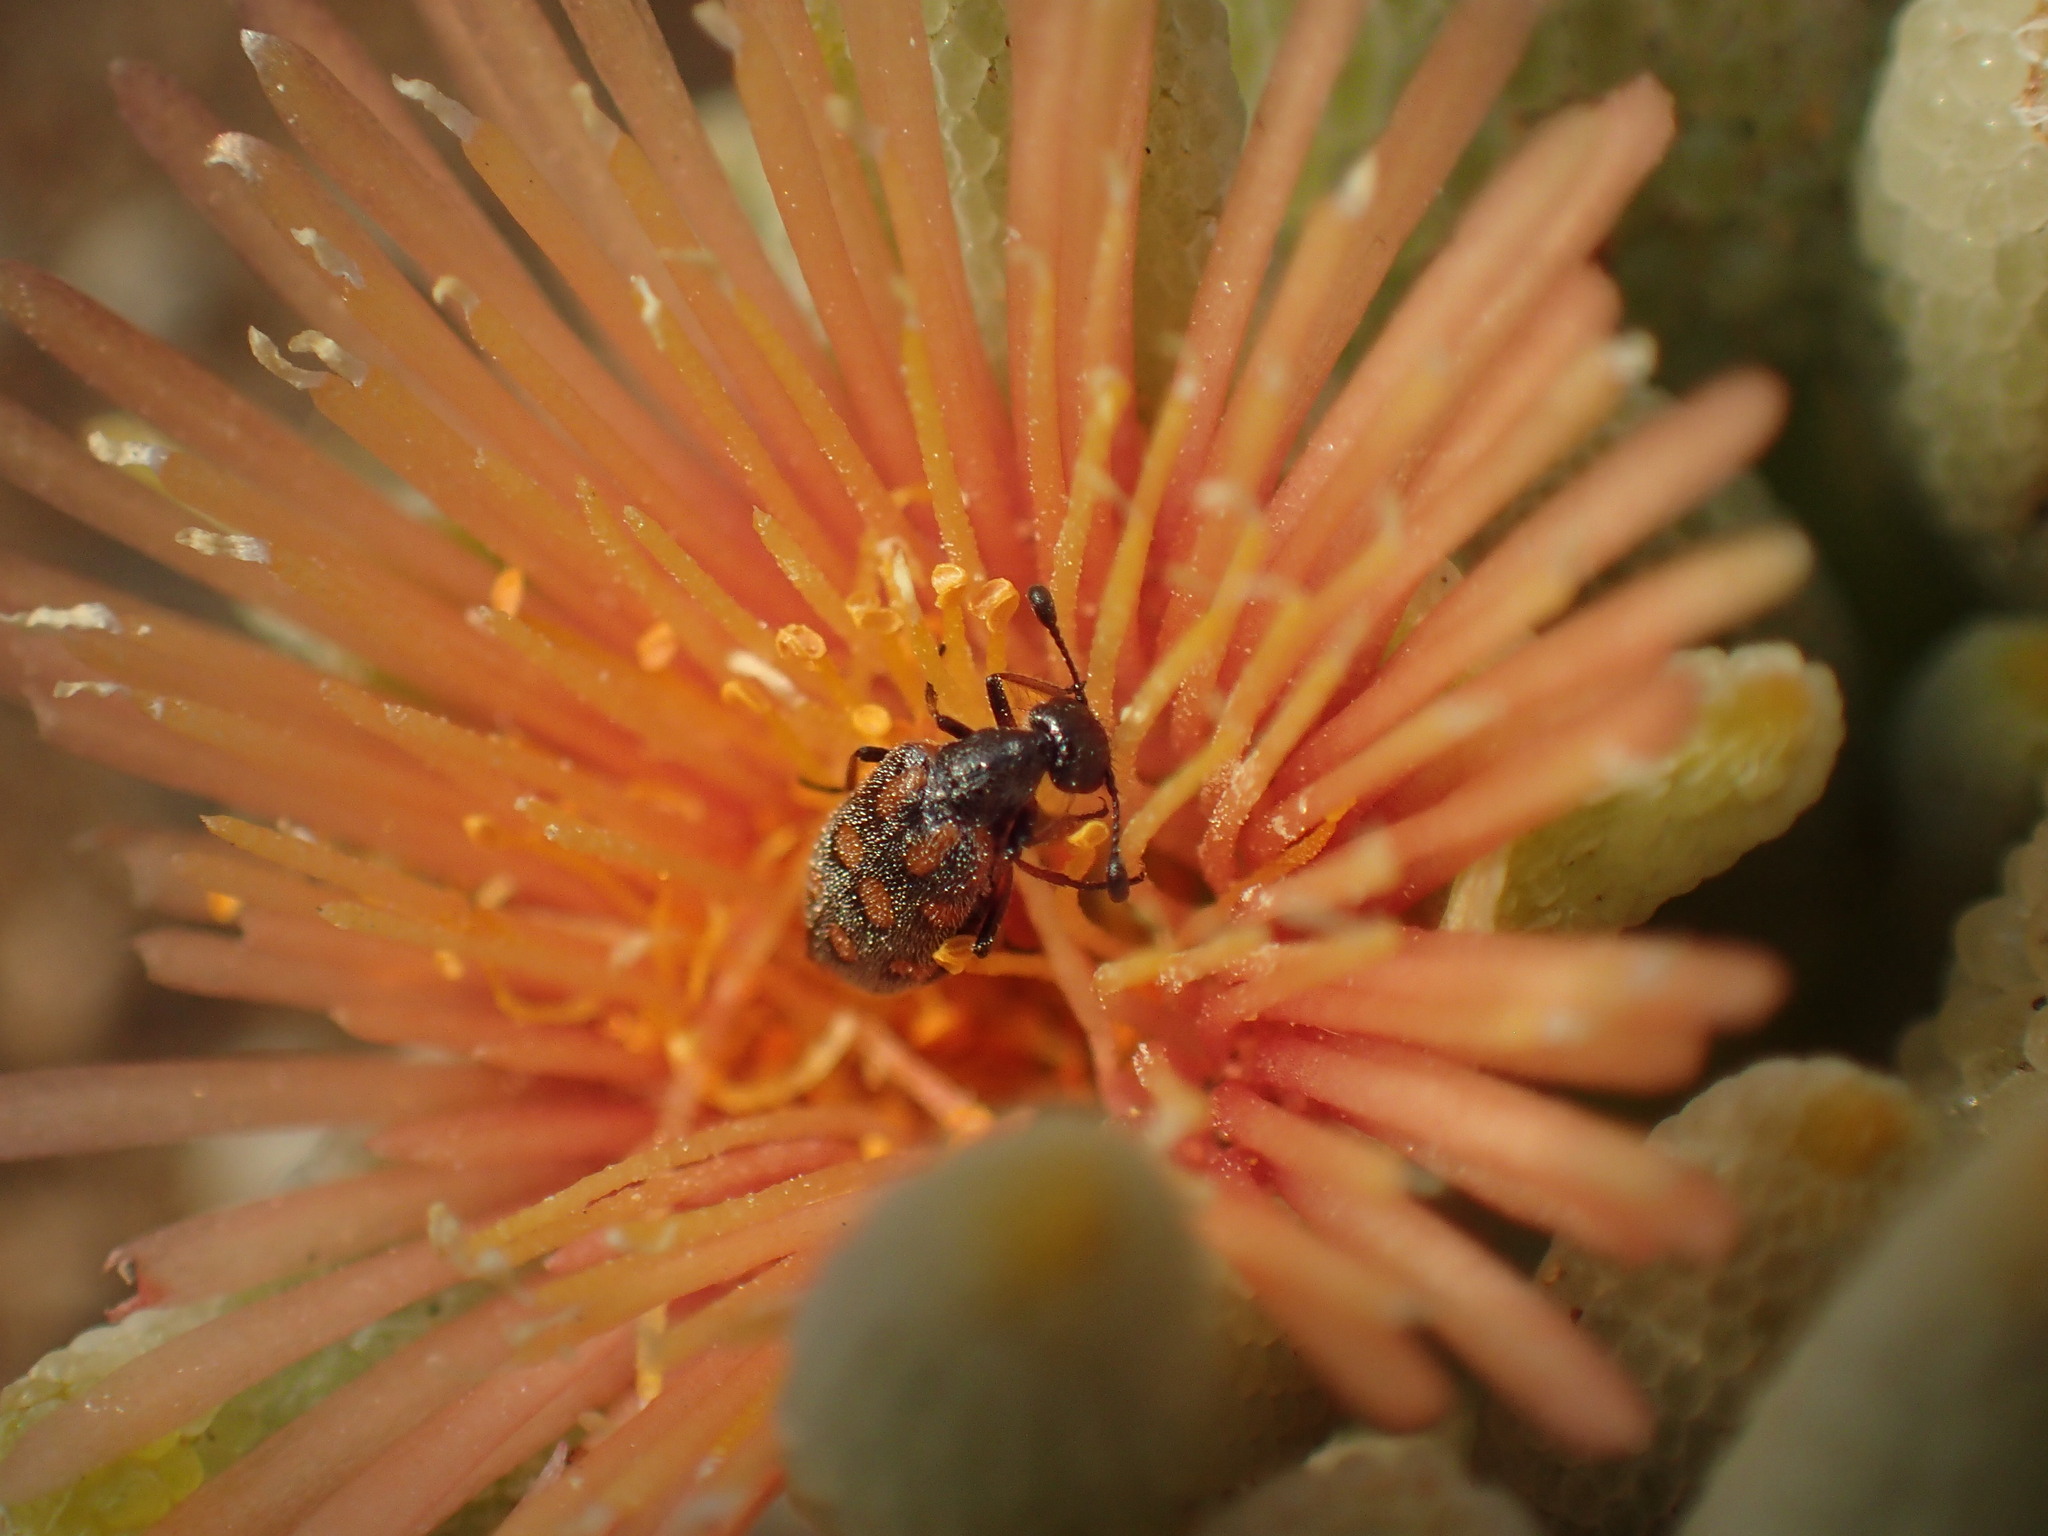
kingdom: Animalia
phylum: Arthropoda
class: Insecta
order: Coleoptera
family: Meloidae
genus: Hycleus
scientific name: Hycleus vestitus
